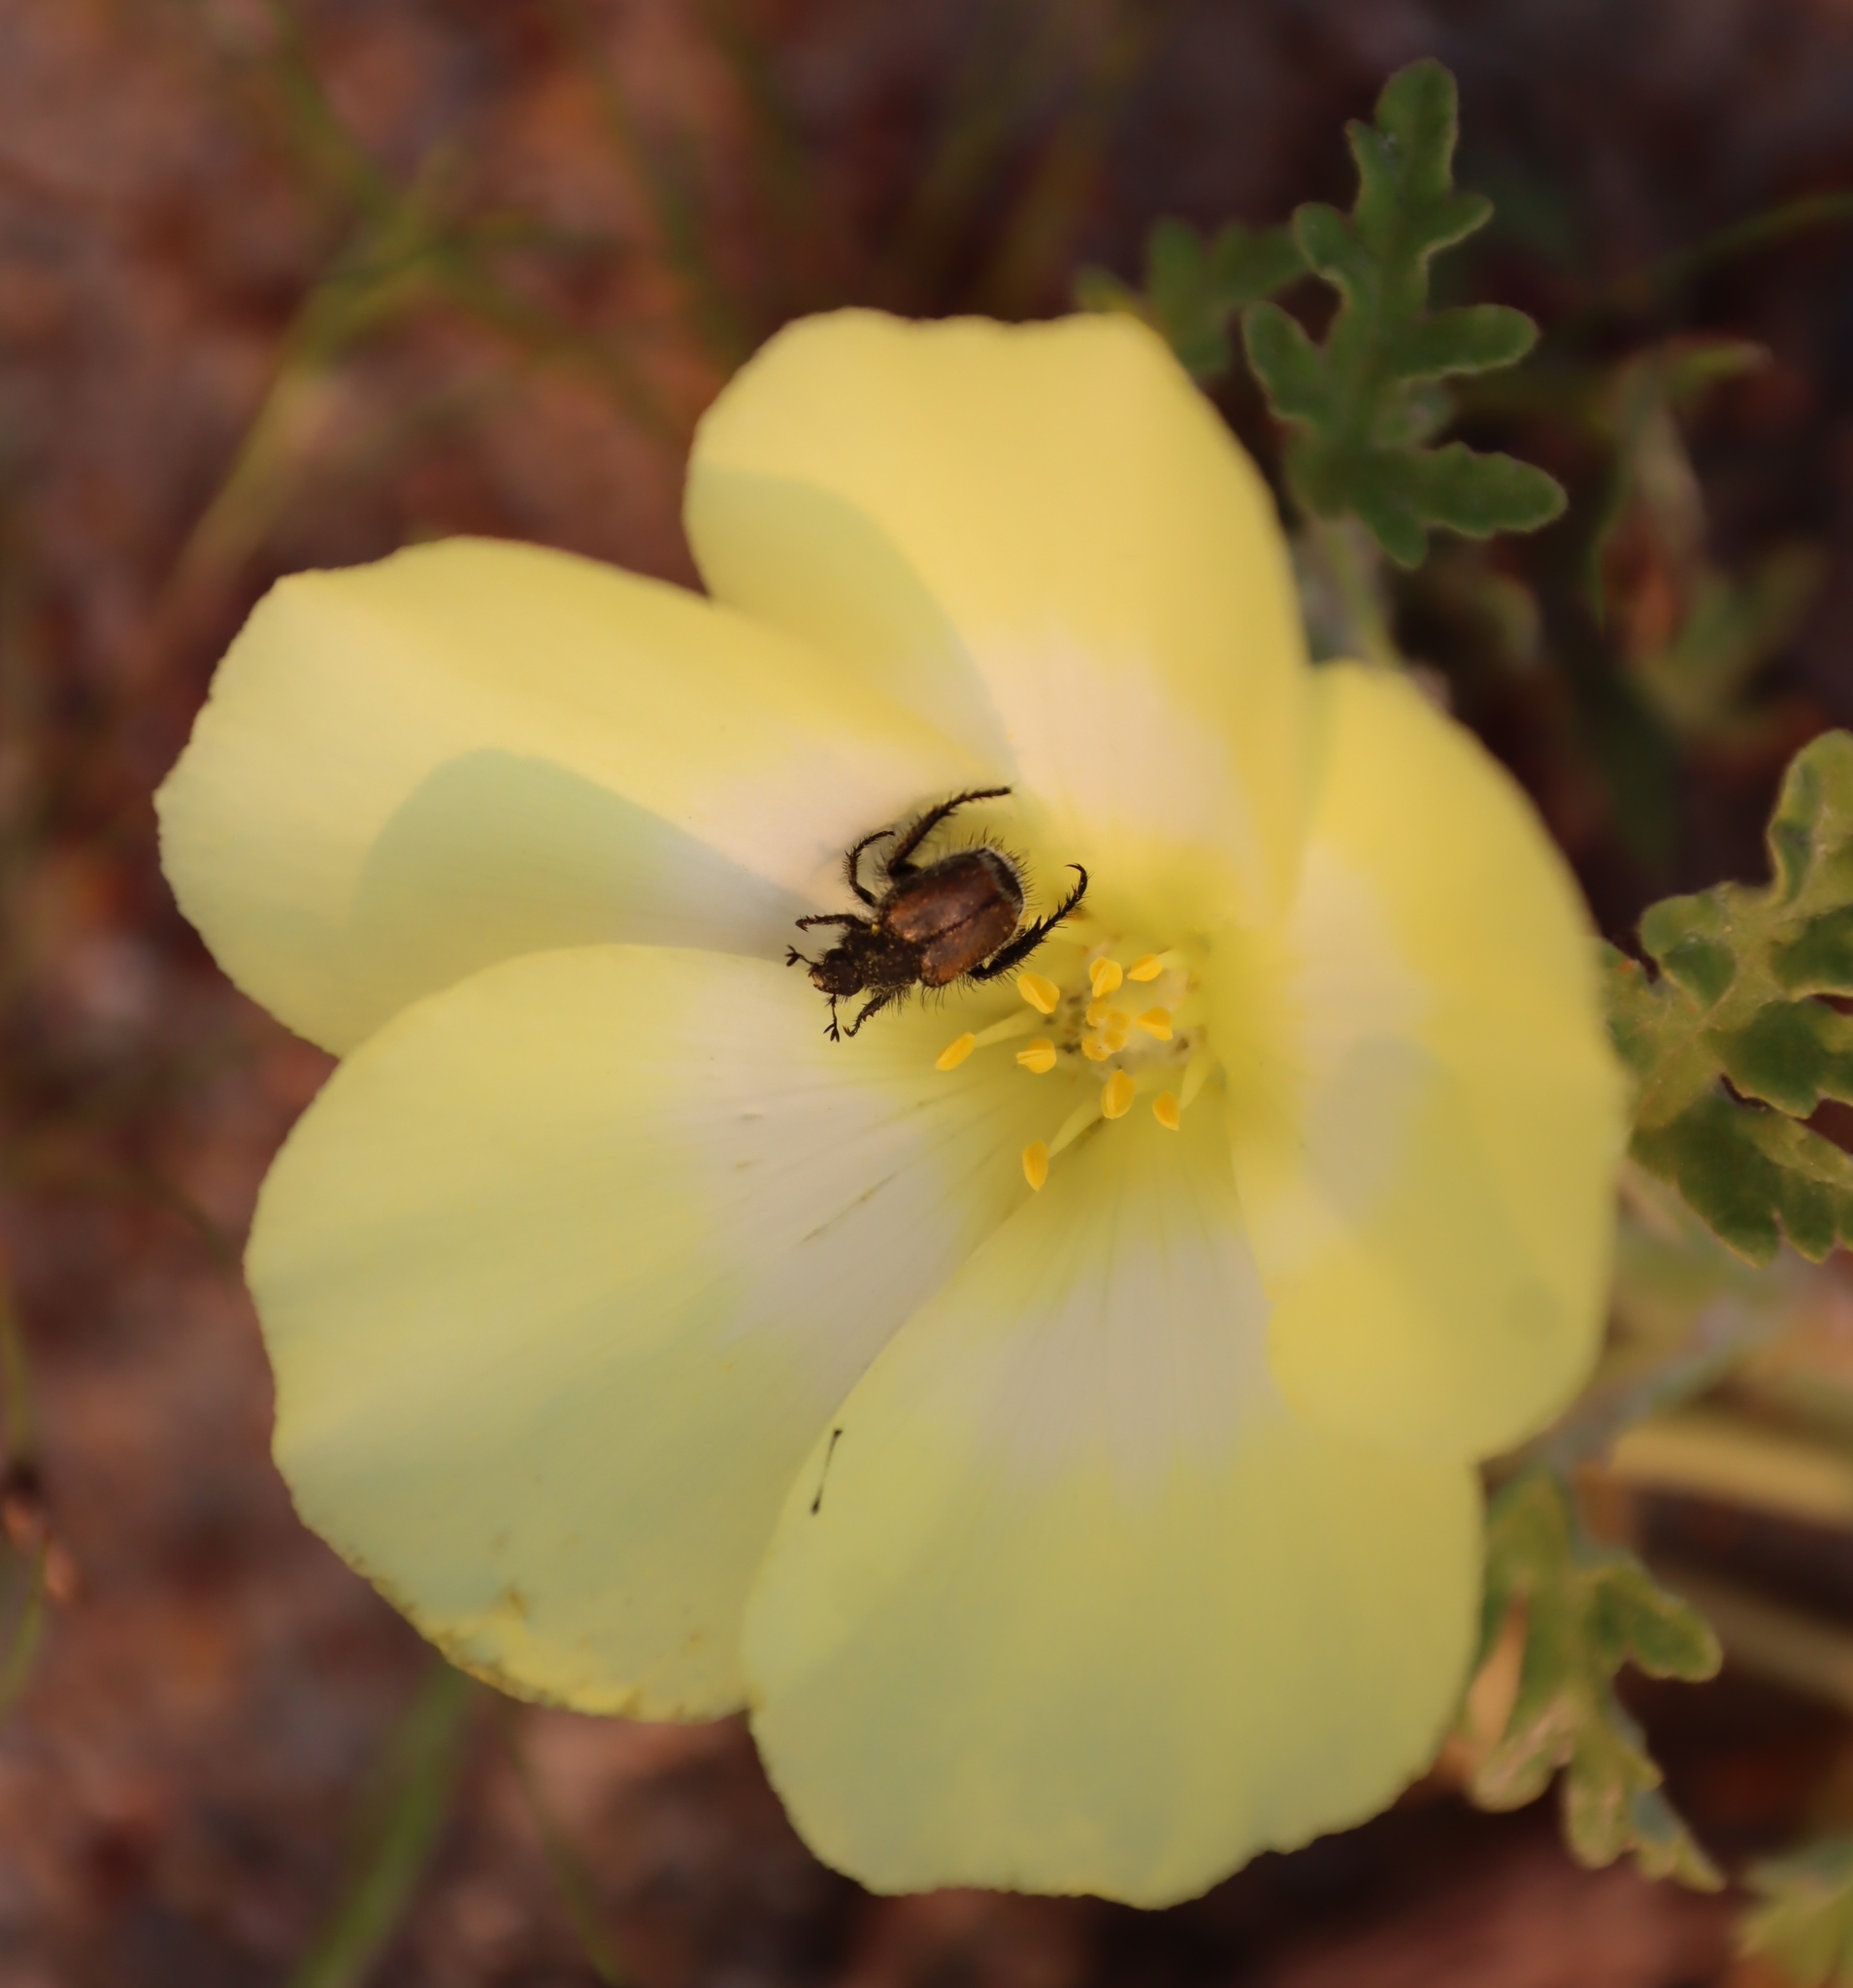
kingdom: Plantae
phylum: Tracheophyta
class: Magnoliopsida
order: Malvales
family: Neuradaceae
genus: Grielum
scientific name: Grielum humifusum
